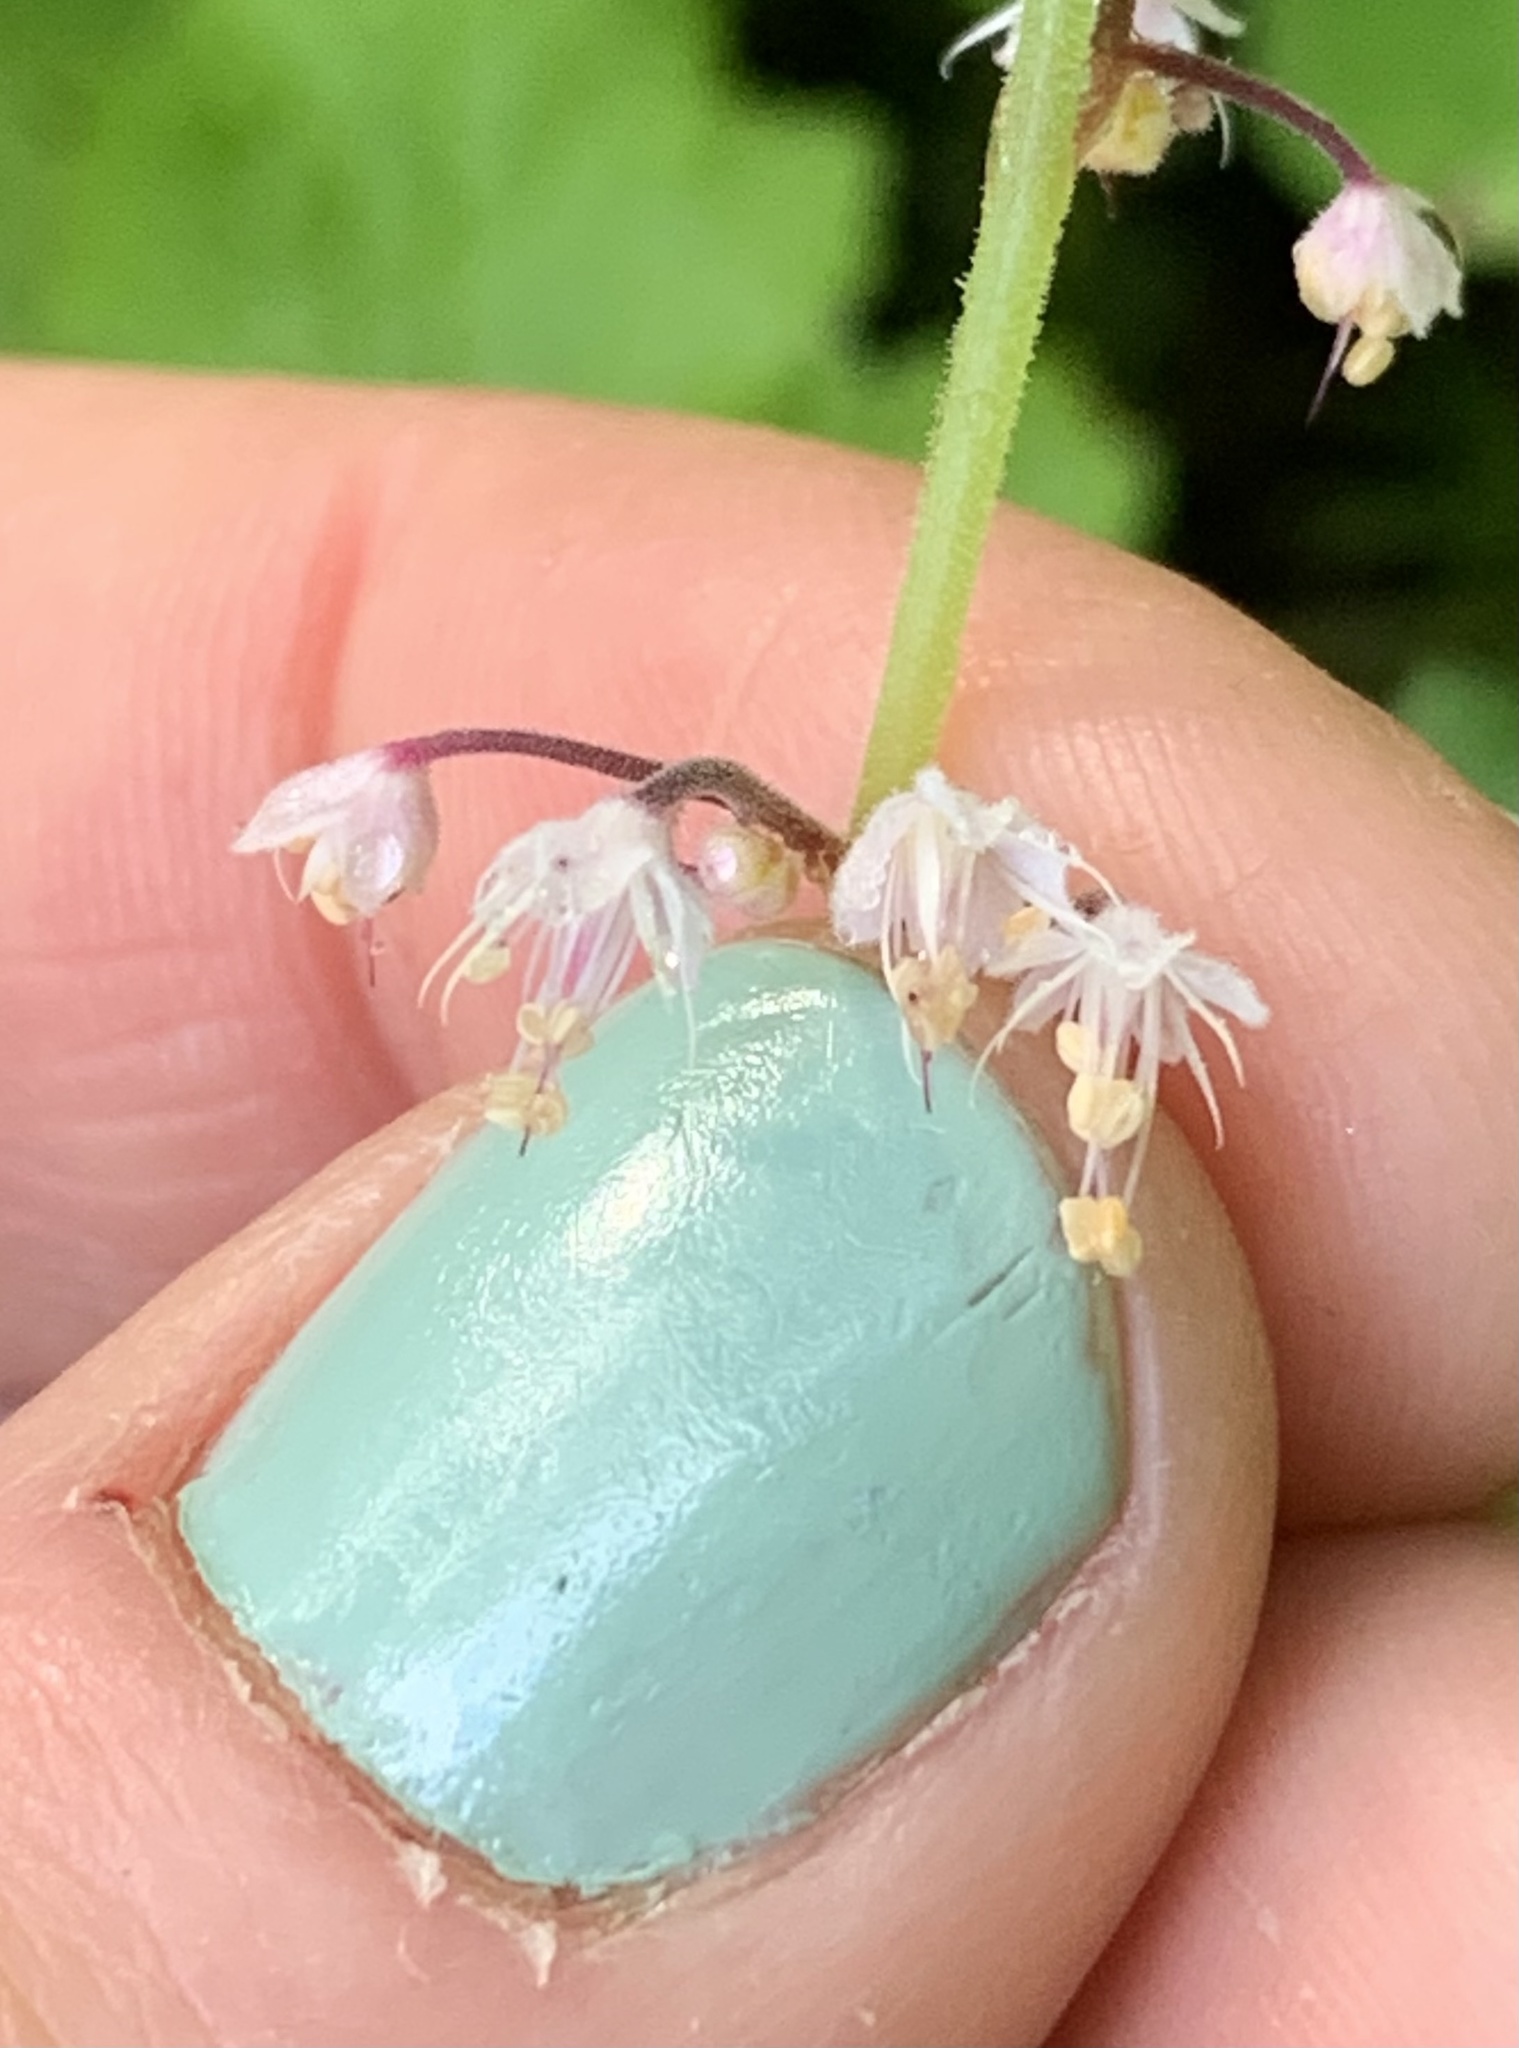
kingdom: Plantae
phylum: Tracheophyta
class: Magnoliopsida
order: Saxifragales
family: Saxifragaceae
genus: Tiarella
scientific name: Tiarella trifoliata
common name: Sugar-scoop
